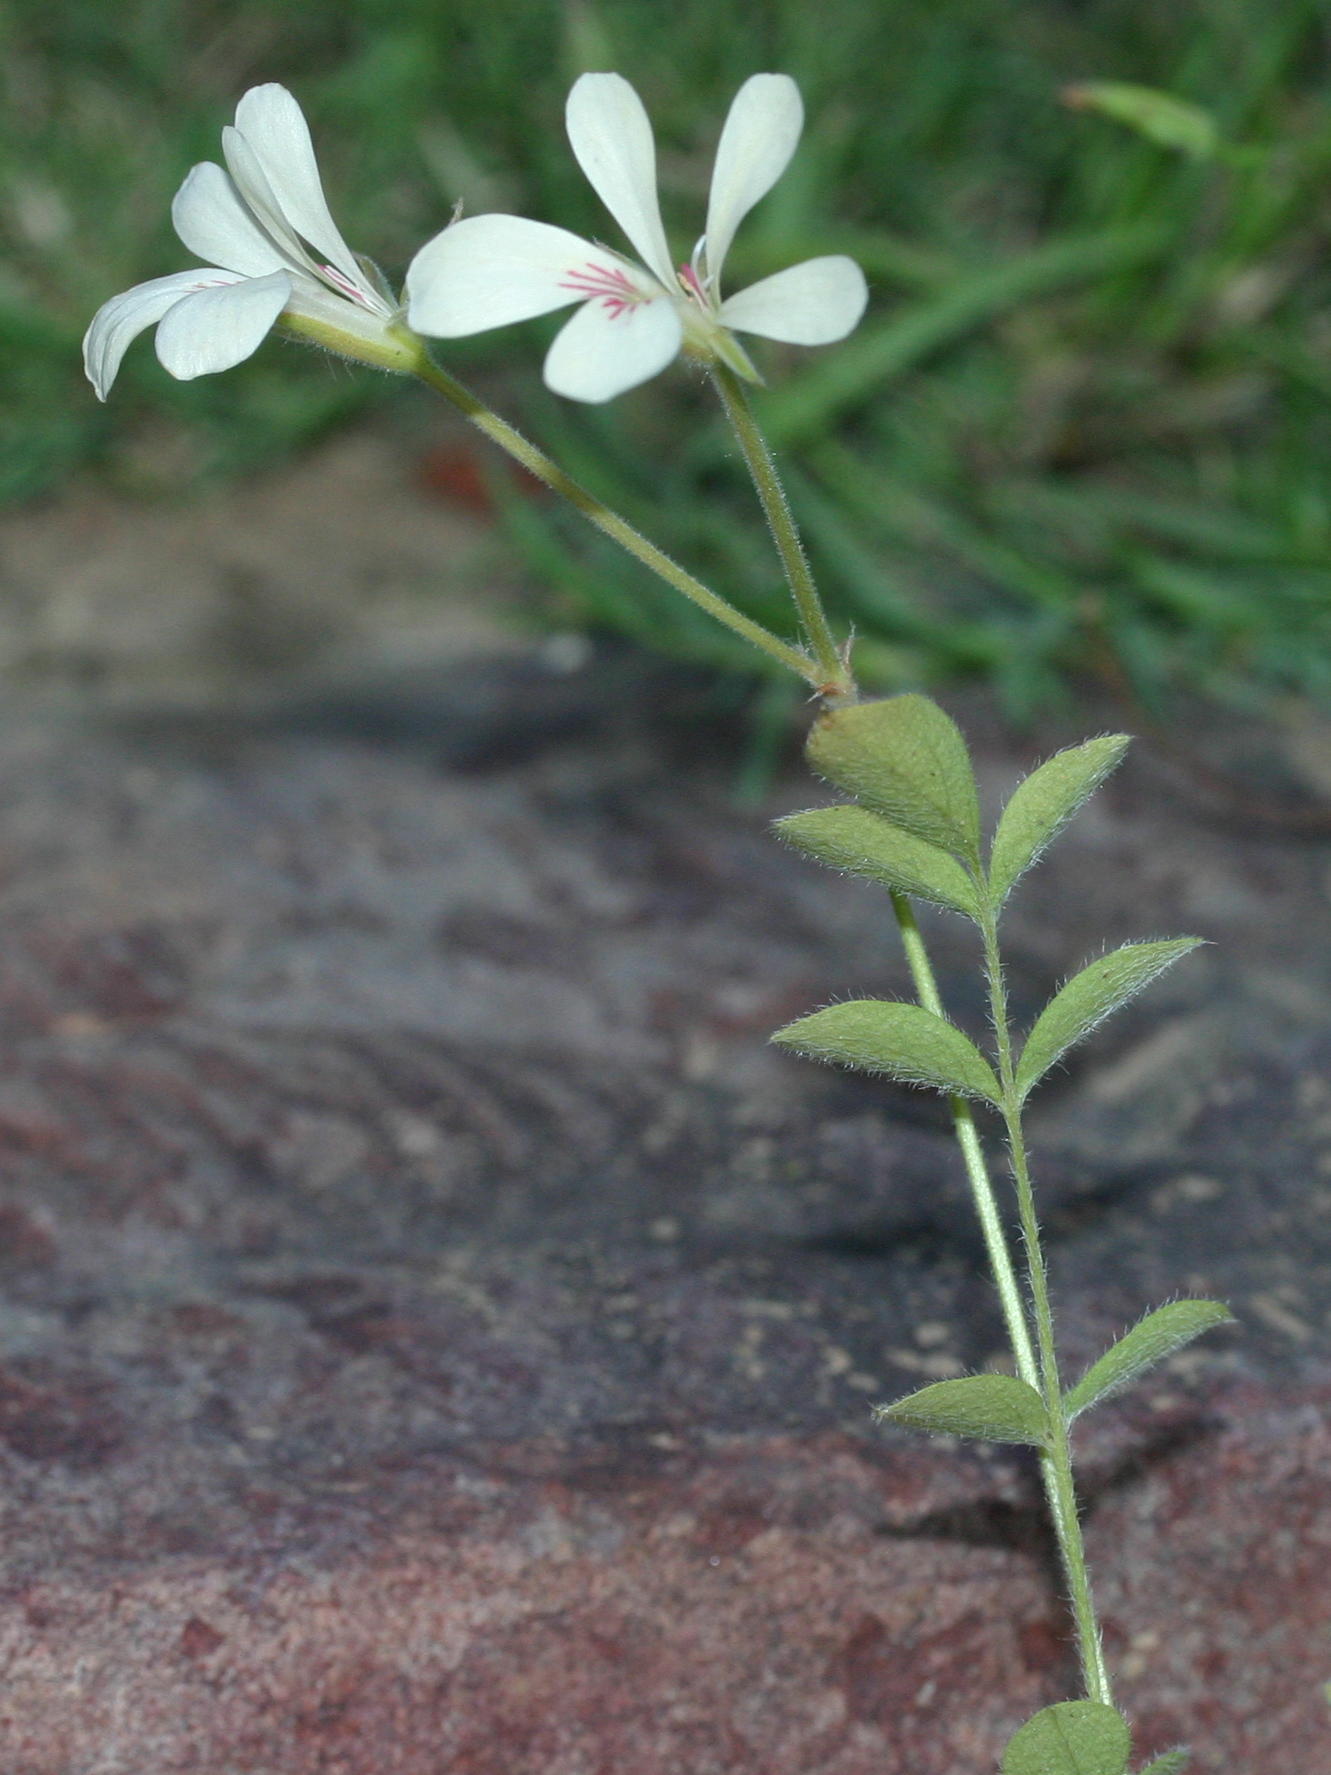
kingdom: Plantae
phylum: Tracheophyta
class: Magnoliopsida
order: Geraniales
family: Geraniaceae
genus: Pelargonium
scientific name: Pelargonium pinnatum
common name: Pinnated pelargonium
